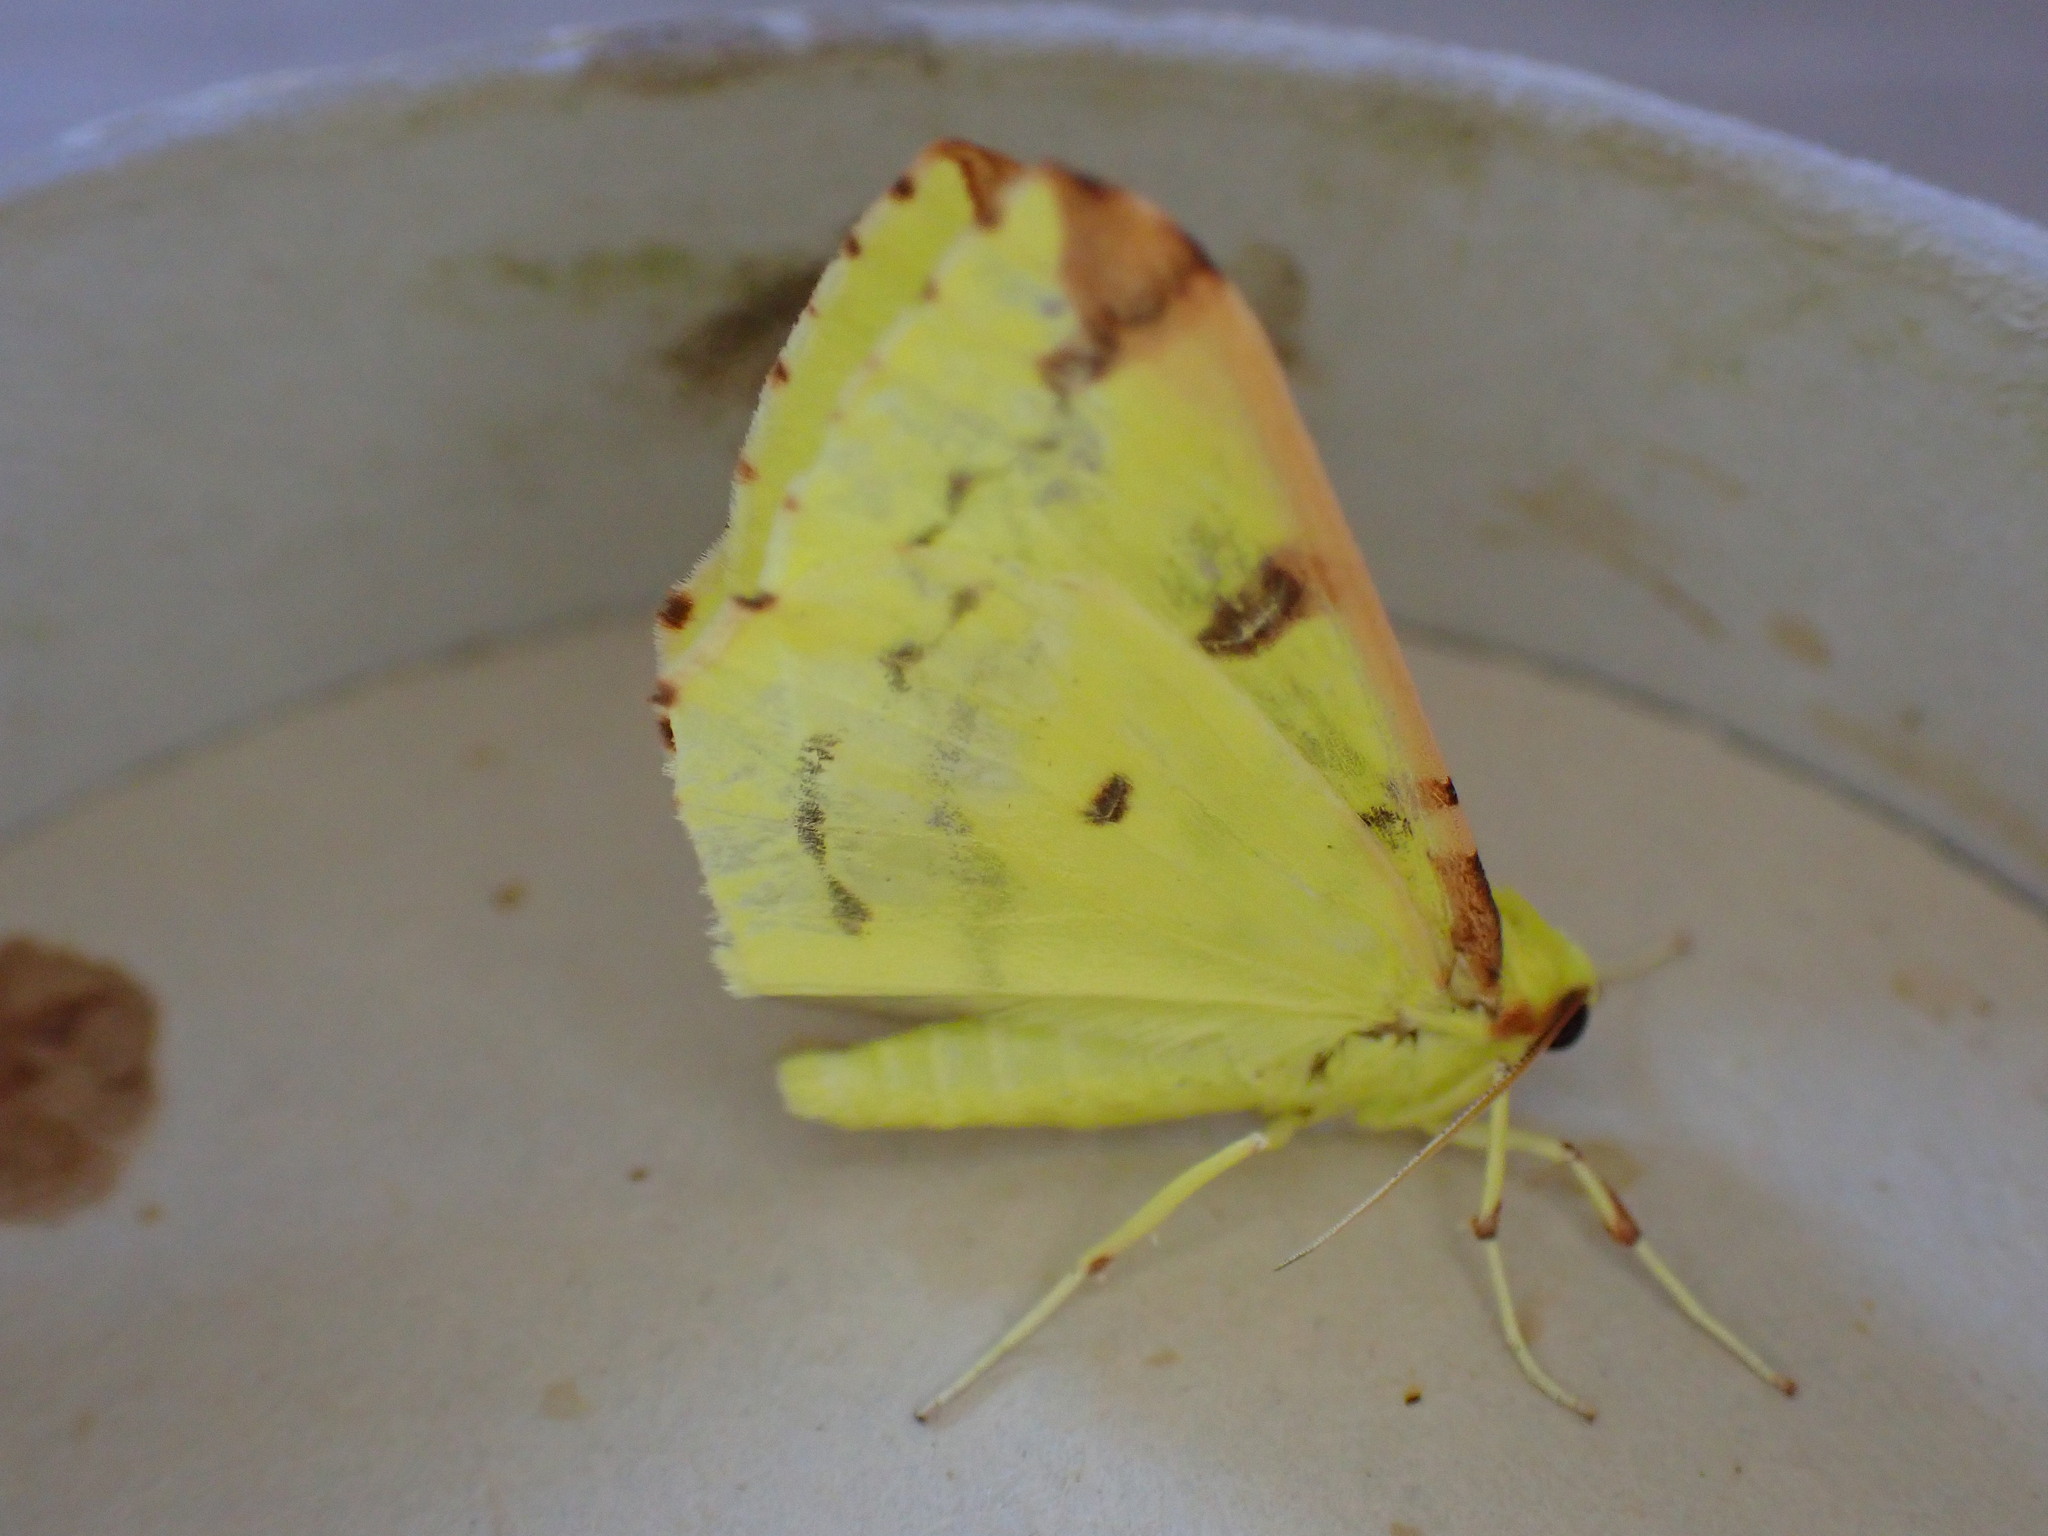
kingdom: Animalia
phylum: Arthropoda
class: Insecta
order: Lepidoptera
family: Geometridae
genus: Opisthograptis
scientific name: Opisthograptis luteolata
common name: Brimstone moth
